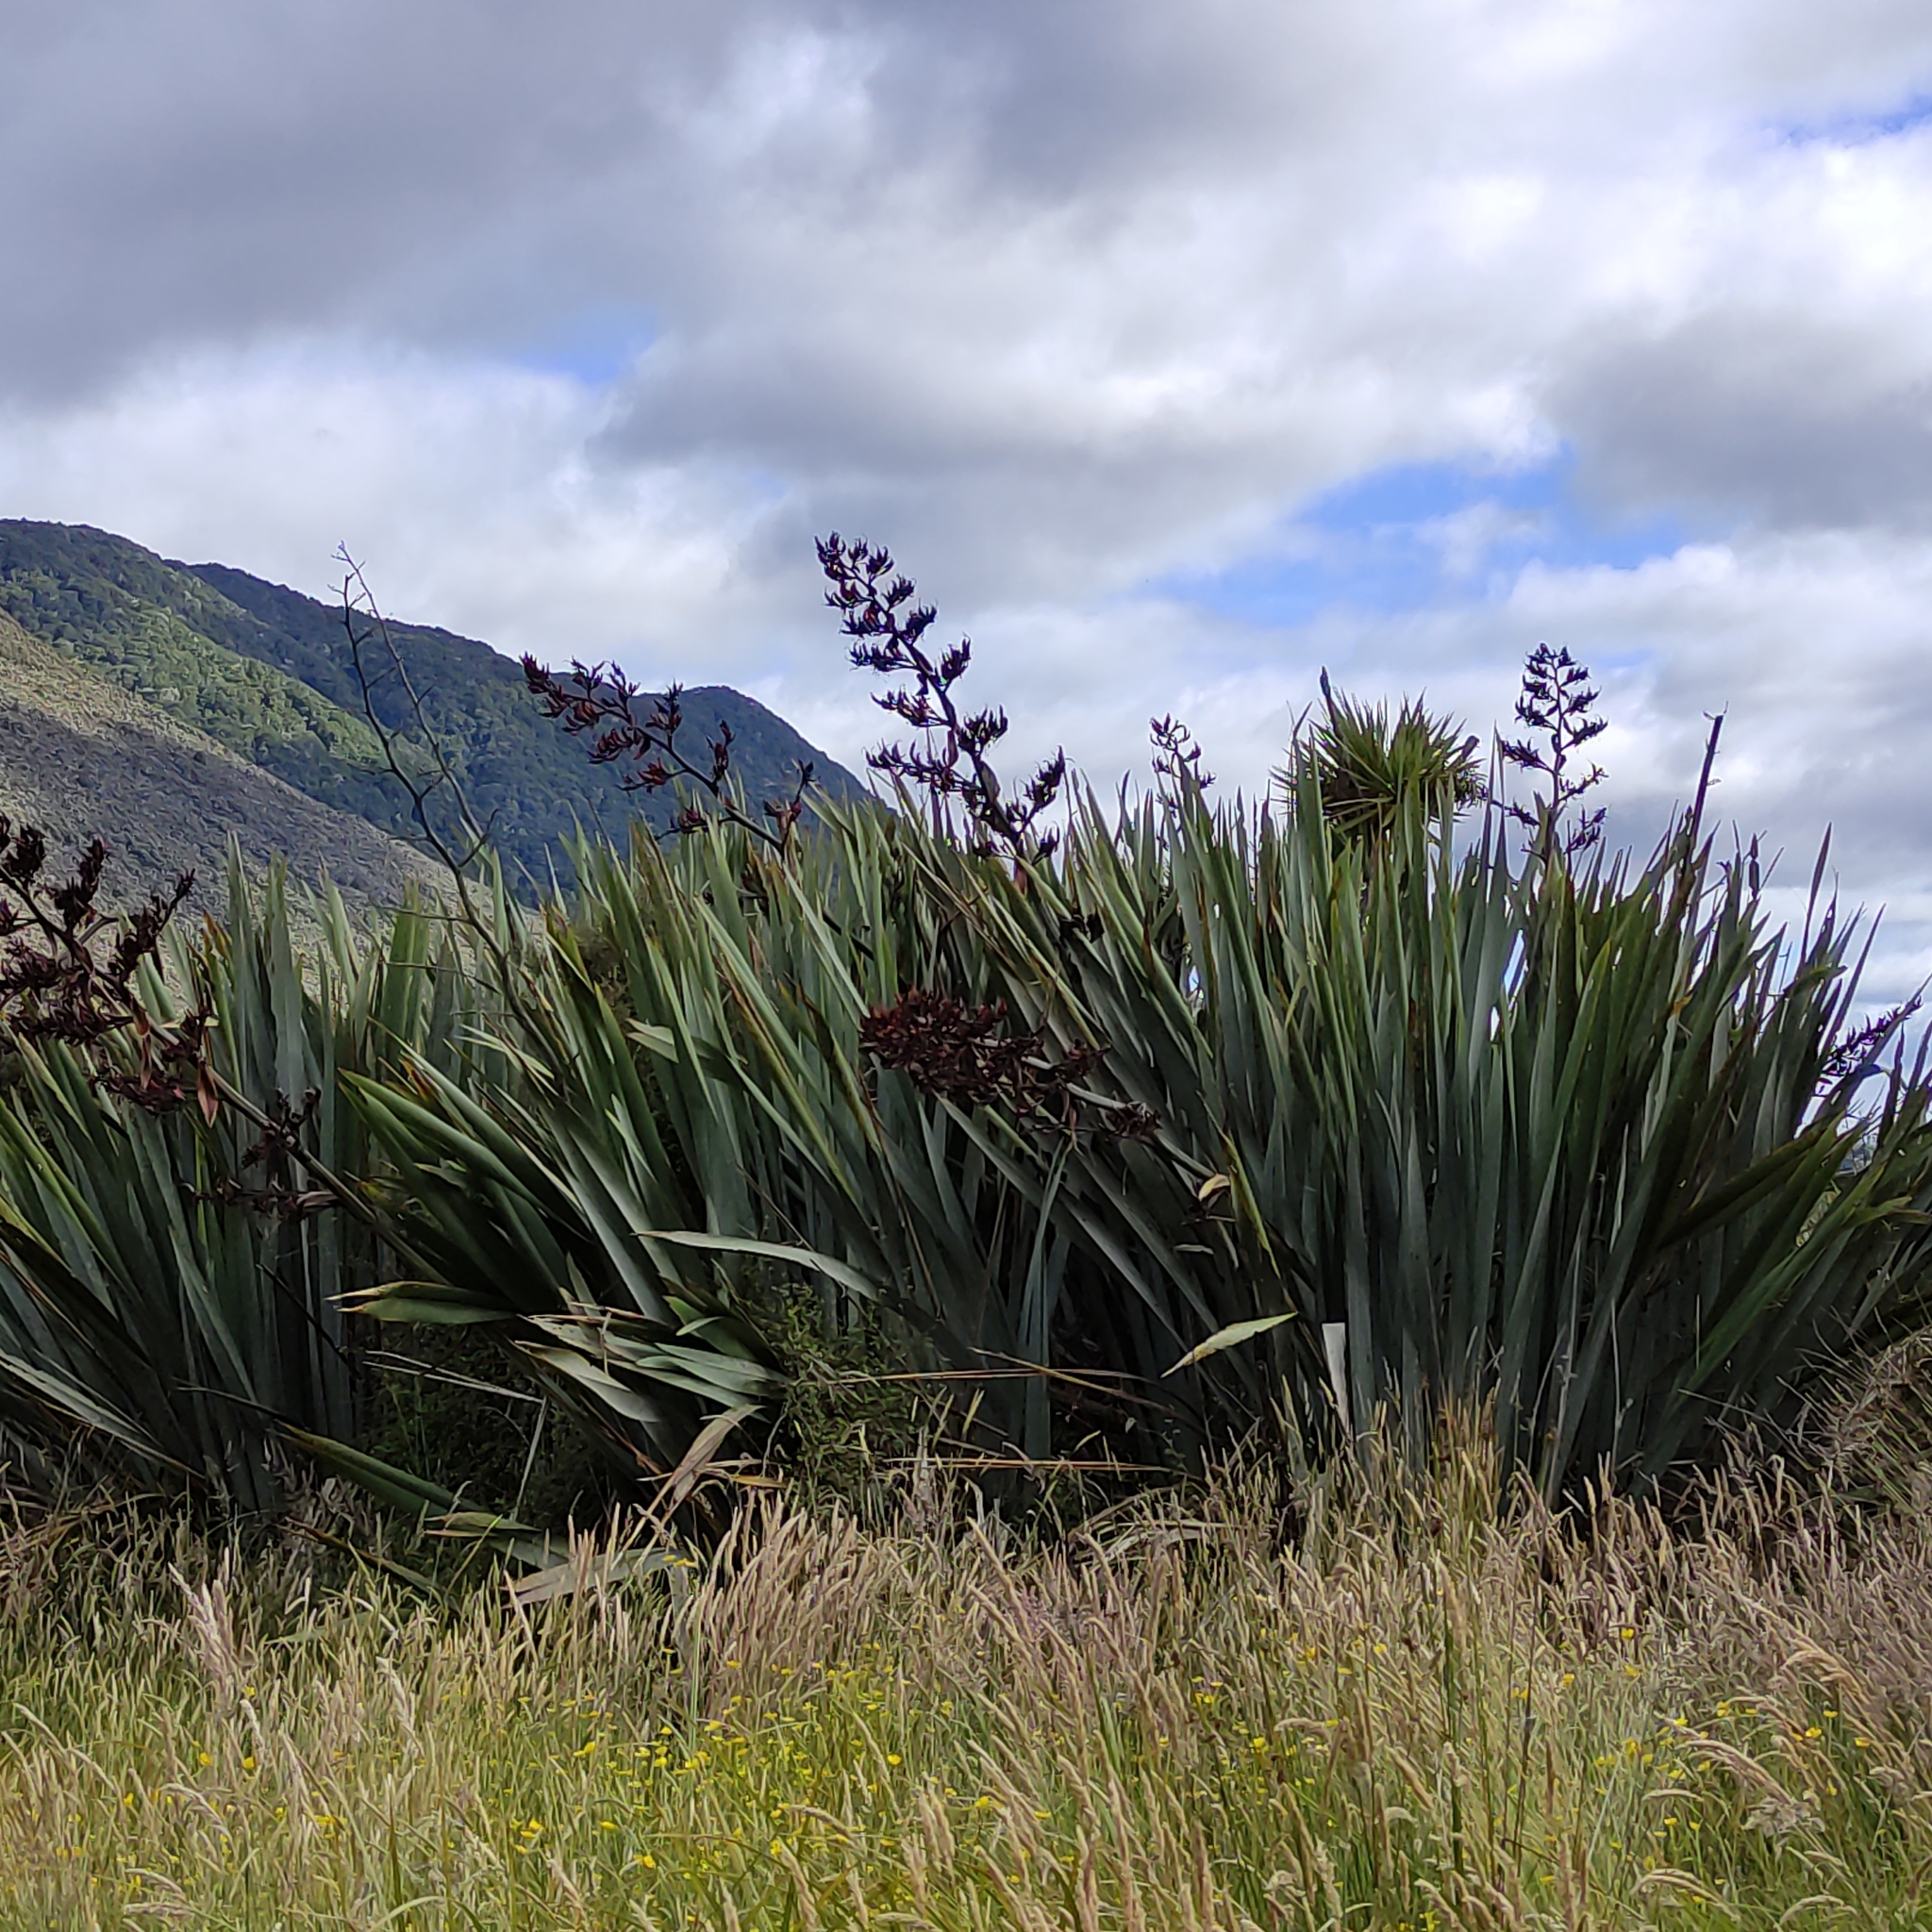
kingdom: Plantae
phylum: Tracheophyta
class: Liliopsida
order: Asparagales
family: Asphodelaceae
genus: Phormium
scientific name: Phormium tenax
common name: New zealand flax
